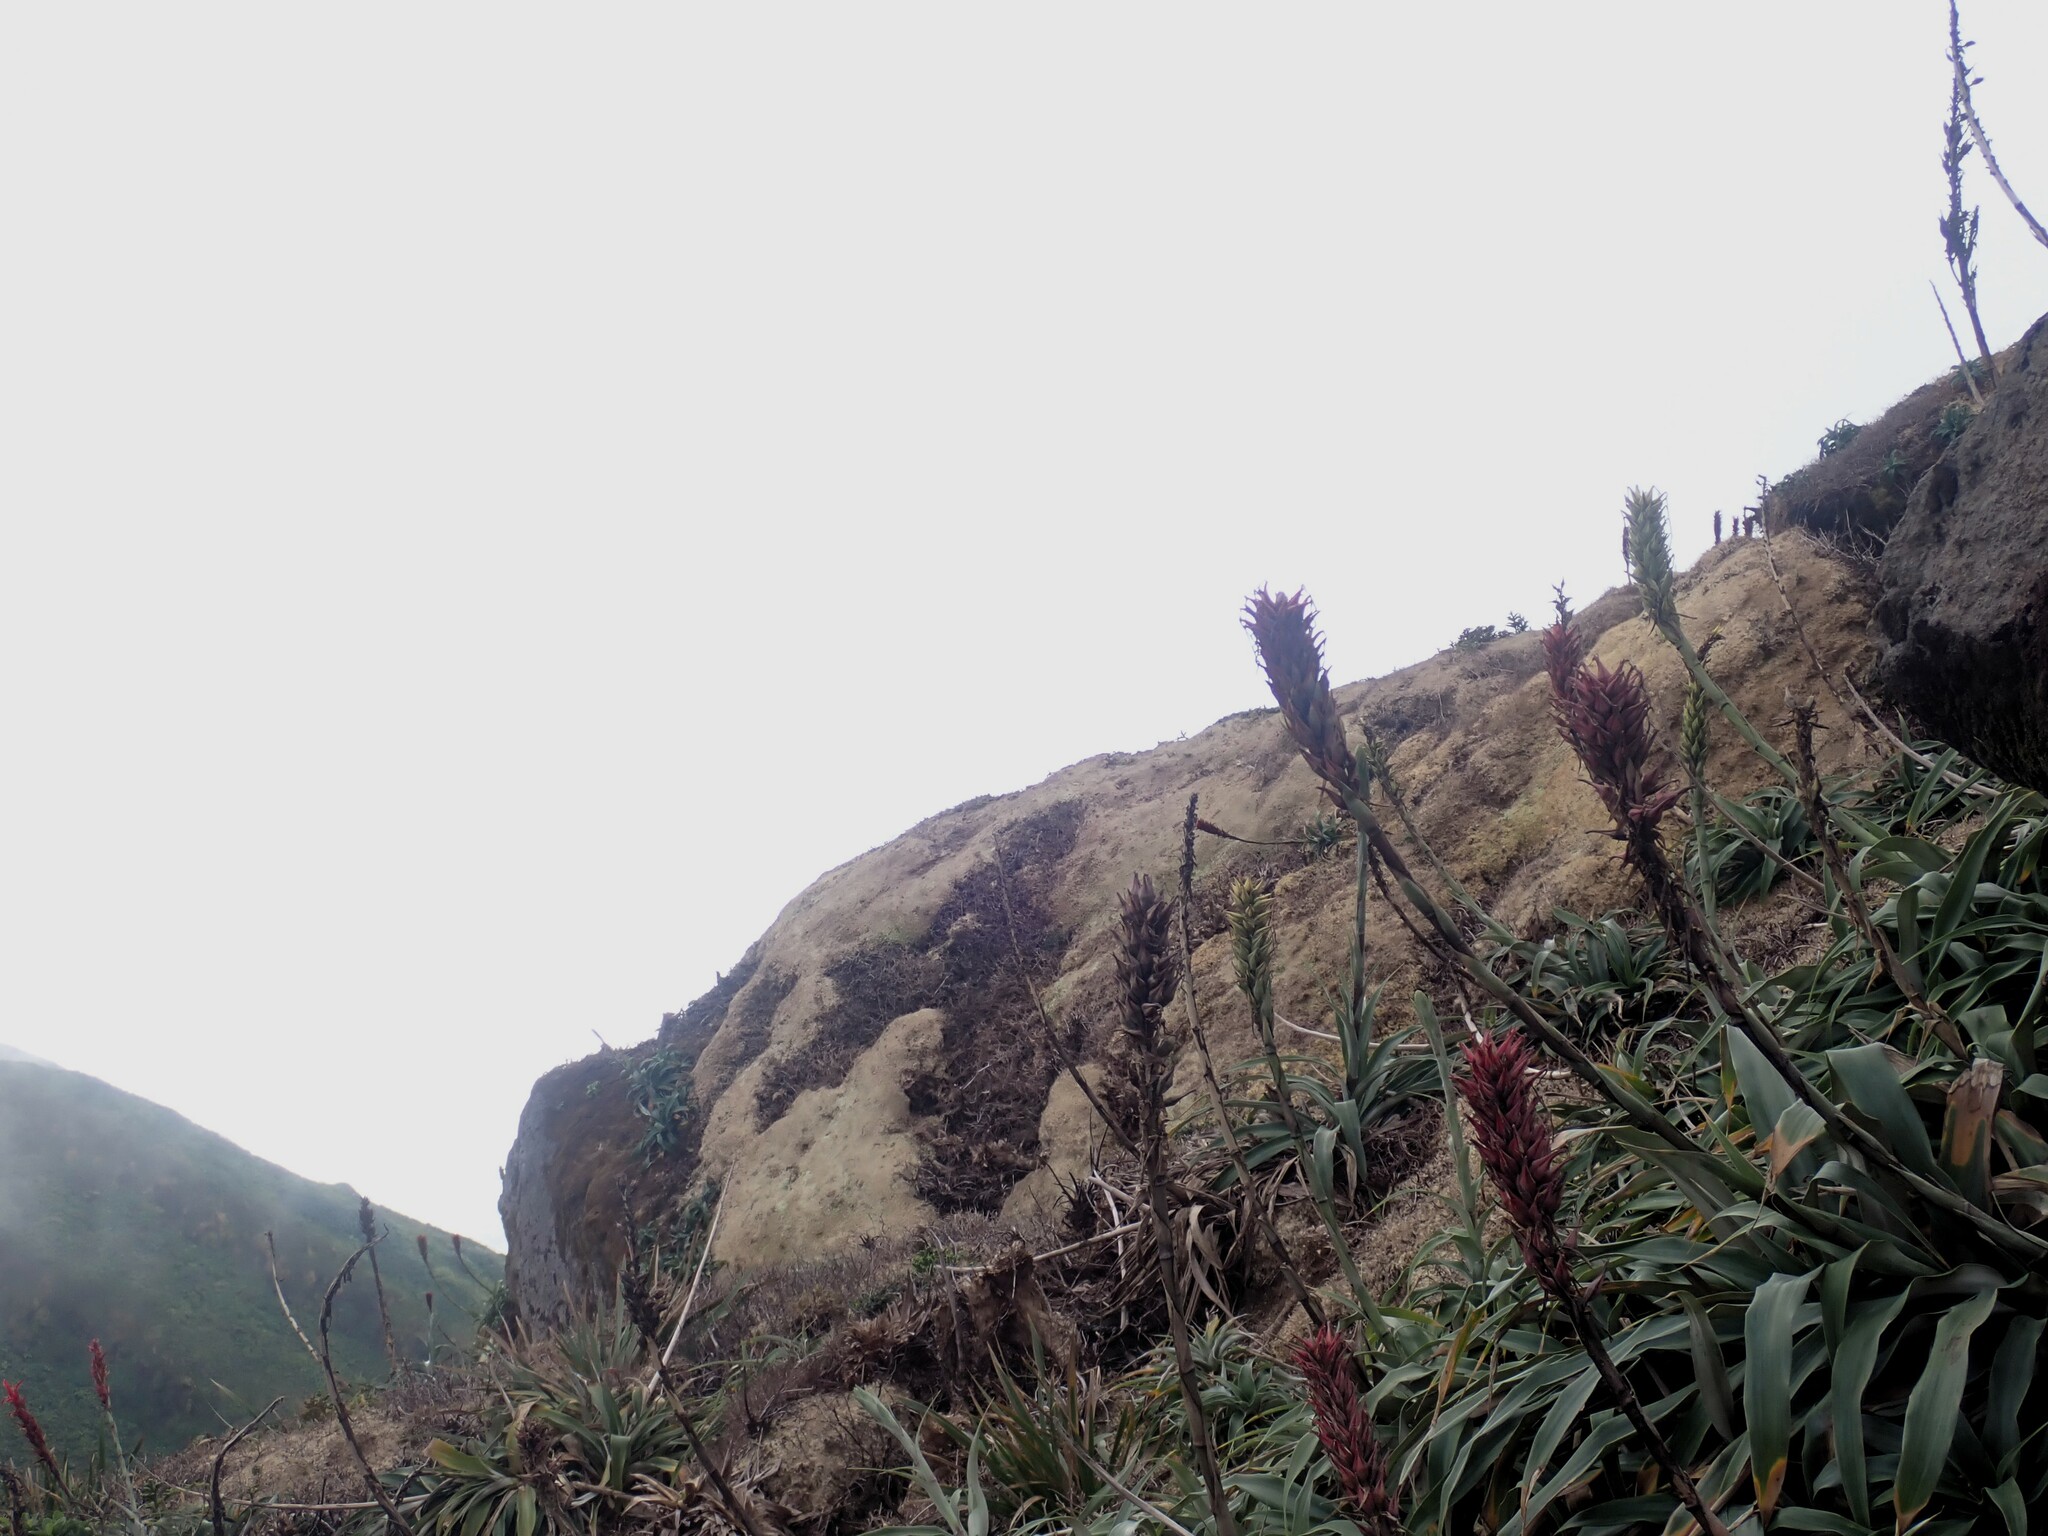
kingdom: Plantae
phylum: Tracheophyta
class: Liliopsida
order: Poales
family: Bromeliaceae
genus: Pitcairnia
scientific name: Pitcairnia bifrons
